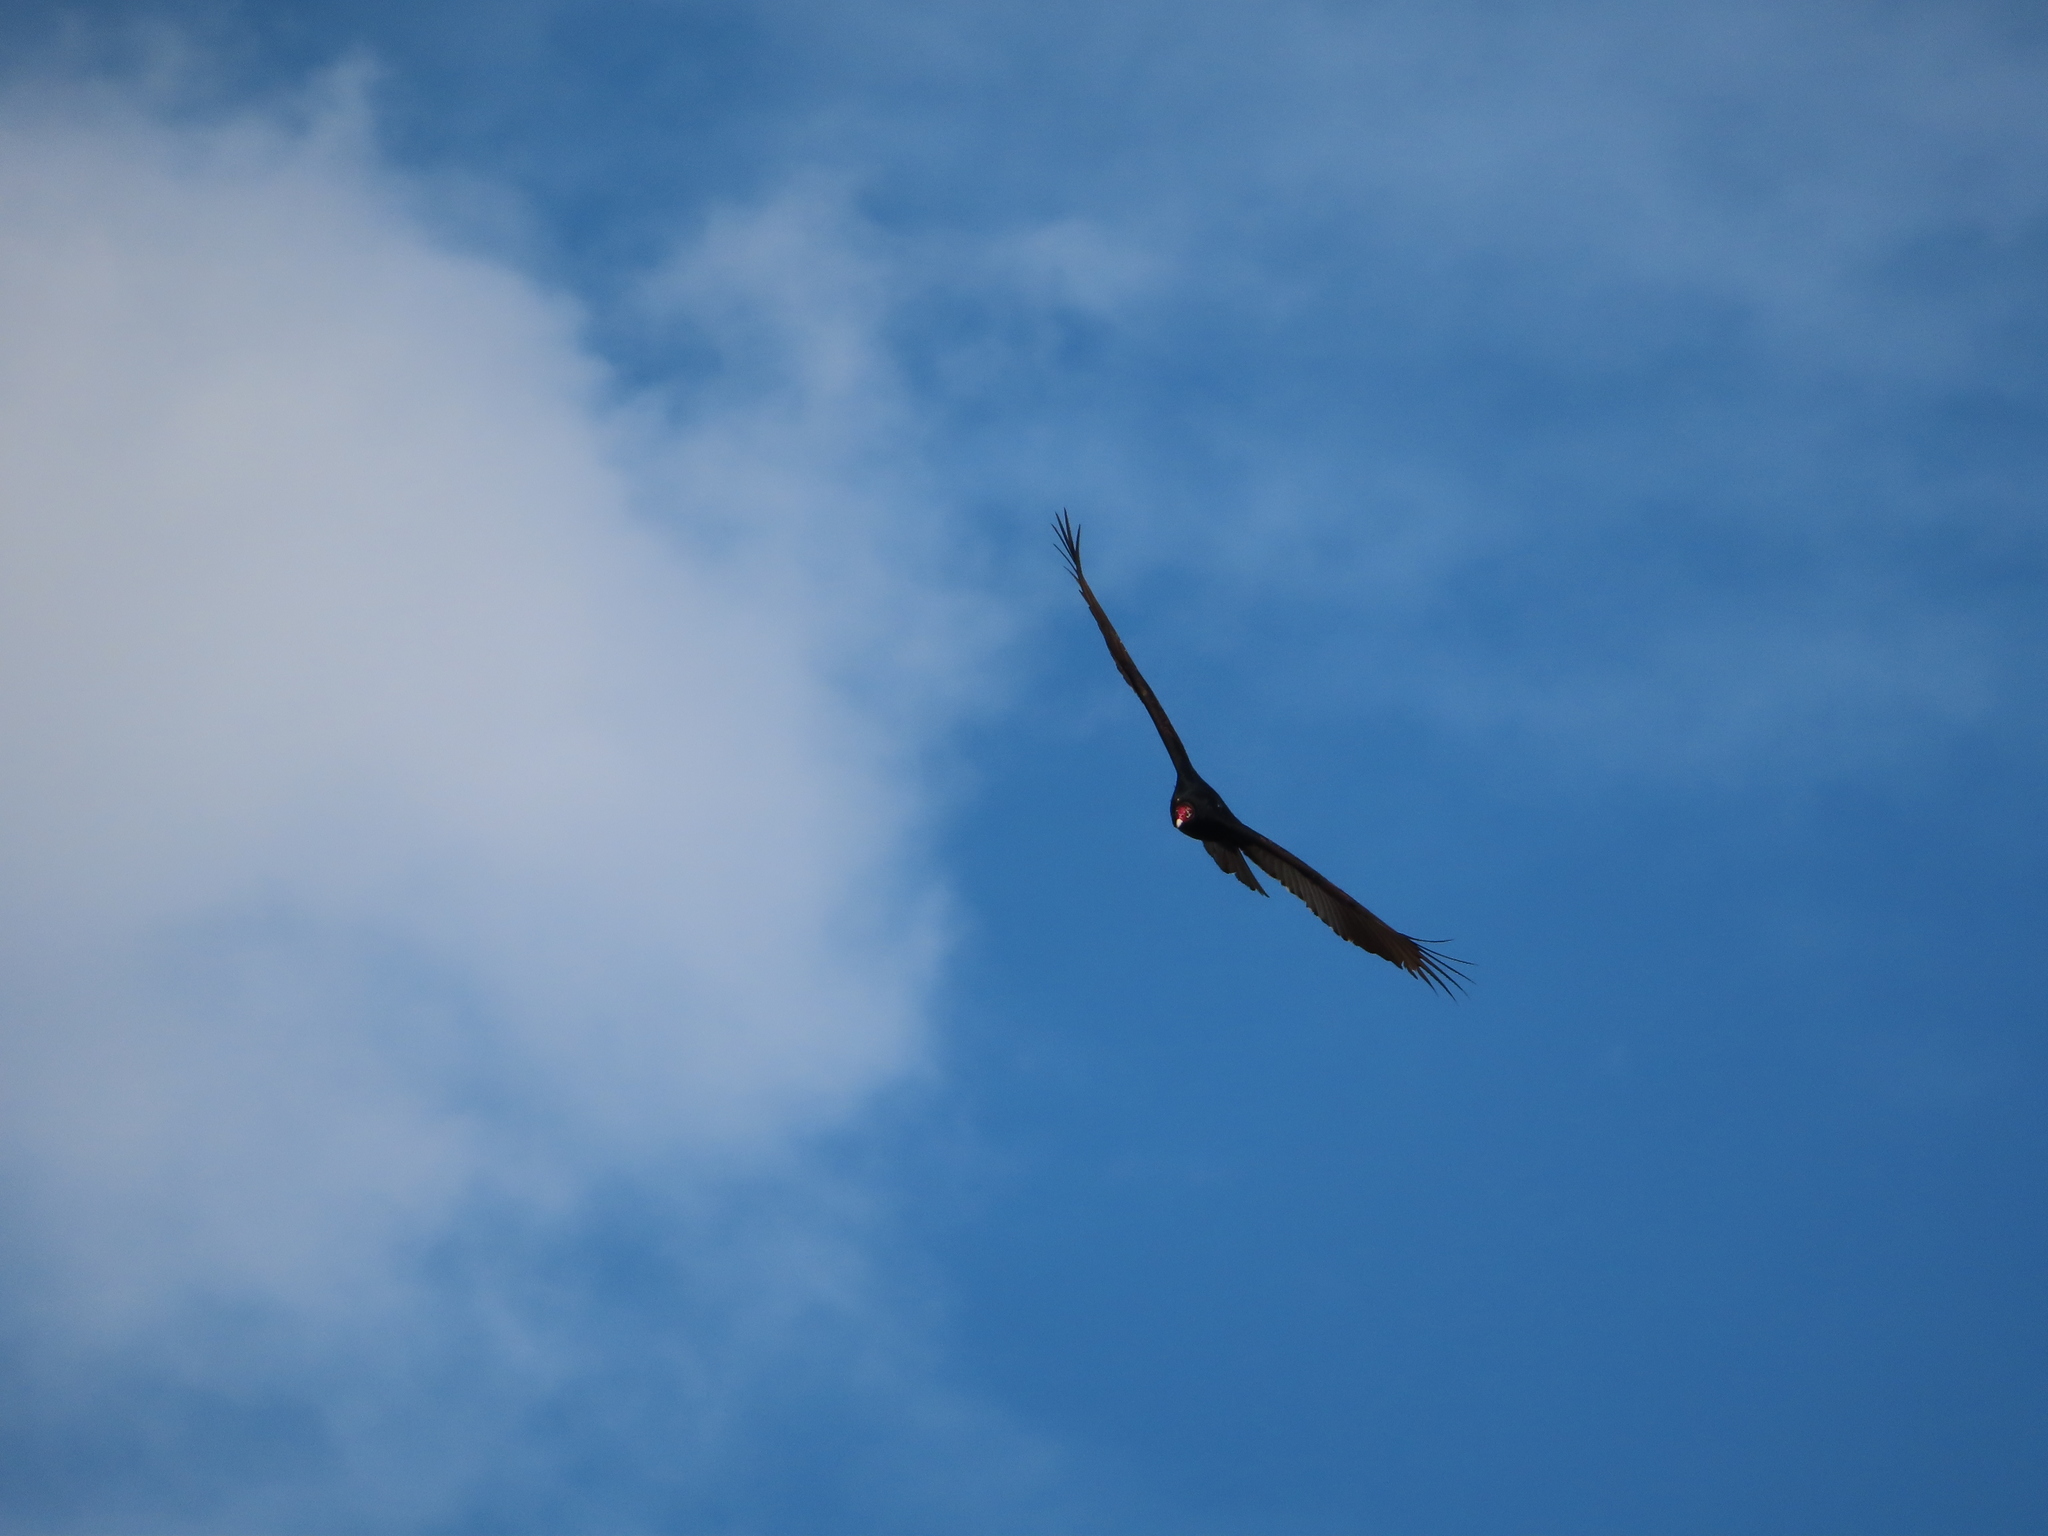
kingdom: Animalia
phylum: Chordata
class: Aves
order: Accipitriformes
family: Cathartidae
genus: Cathartes
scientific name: Cathartes aura
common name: Turkey vulture
